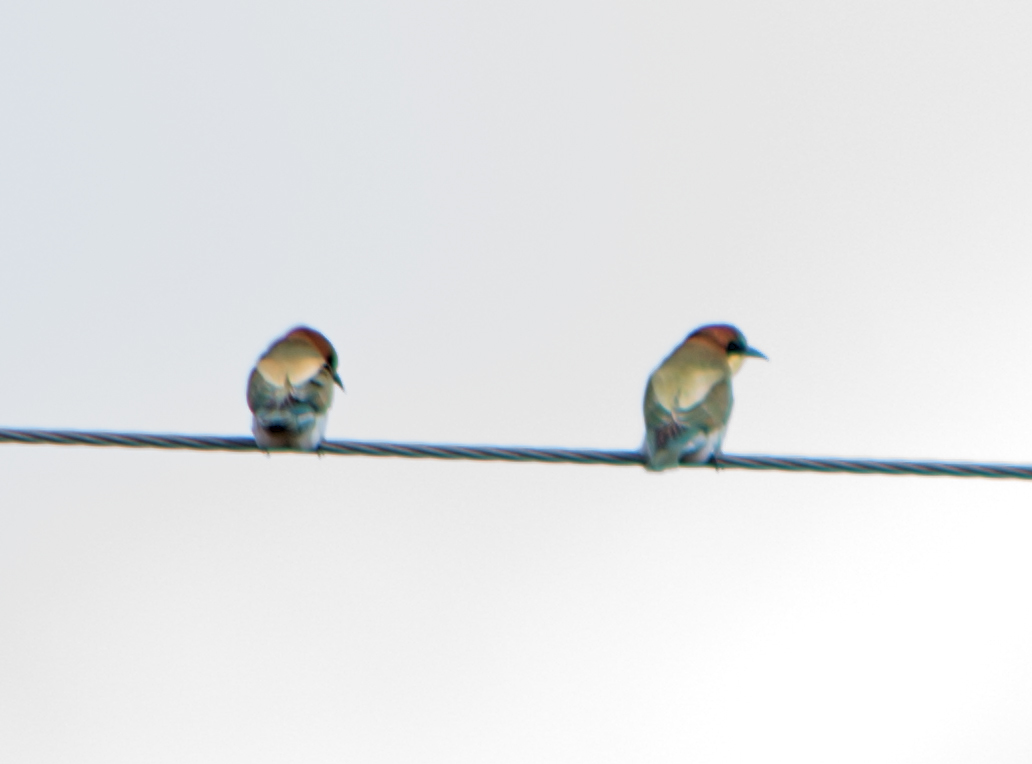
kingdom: Animalia
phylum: Chordata
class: Aves
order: Coraciiformes
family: Meropidae
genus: Merops
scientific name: Merops apiaster
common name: European bee-eater
